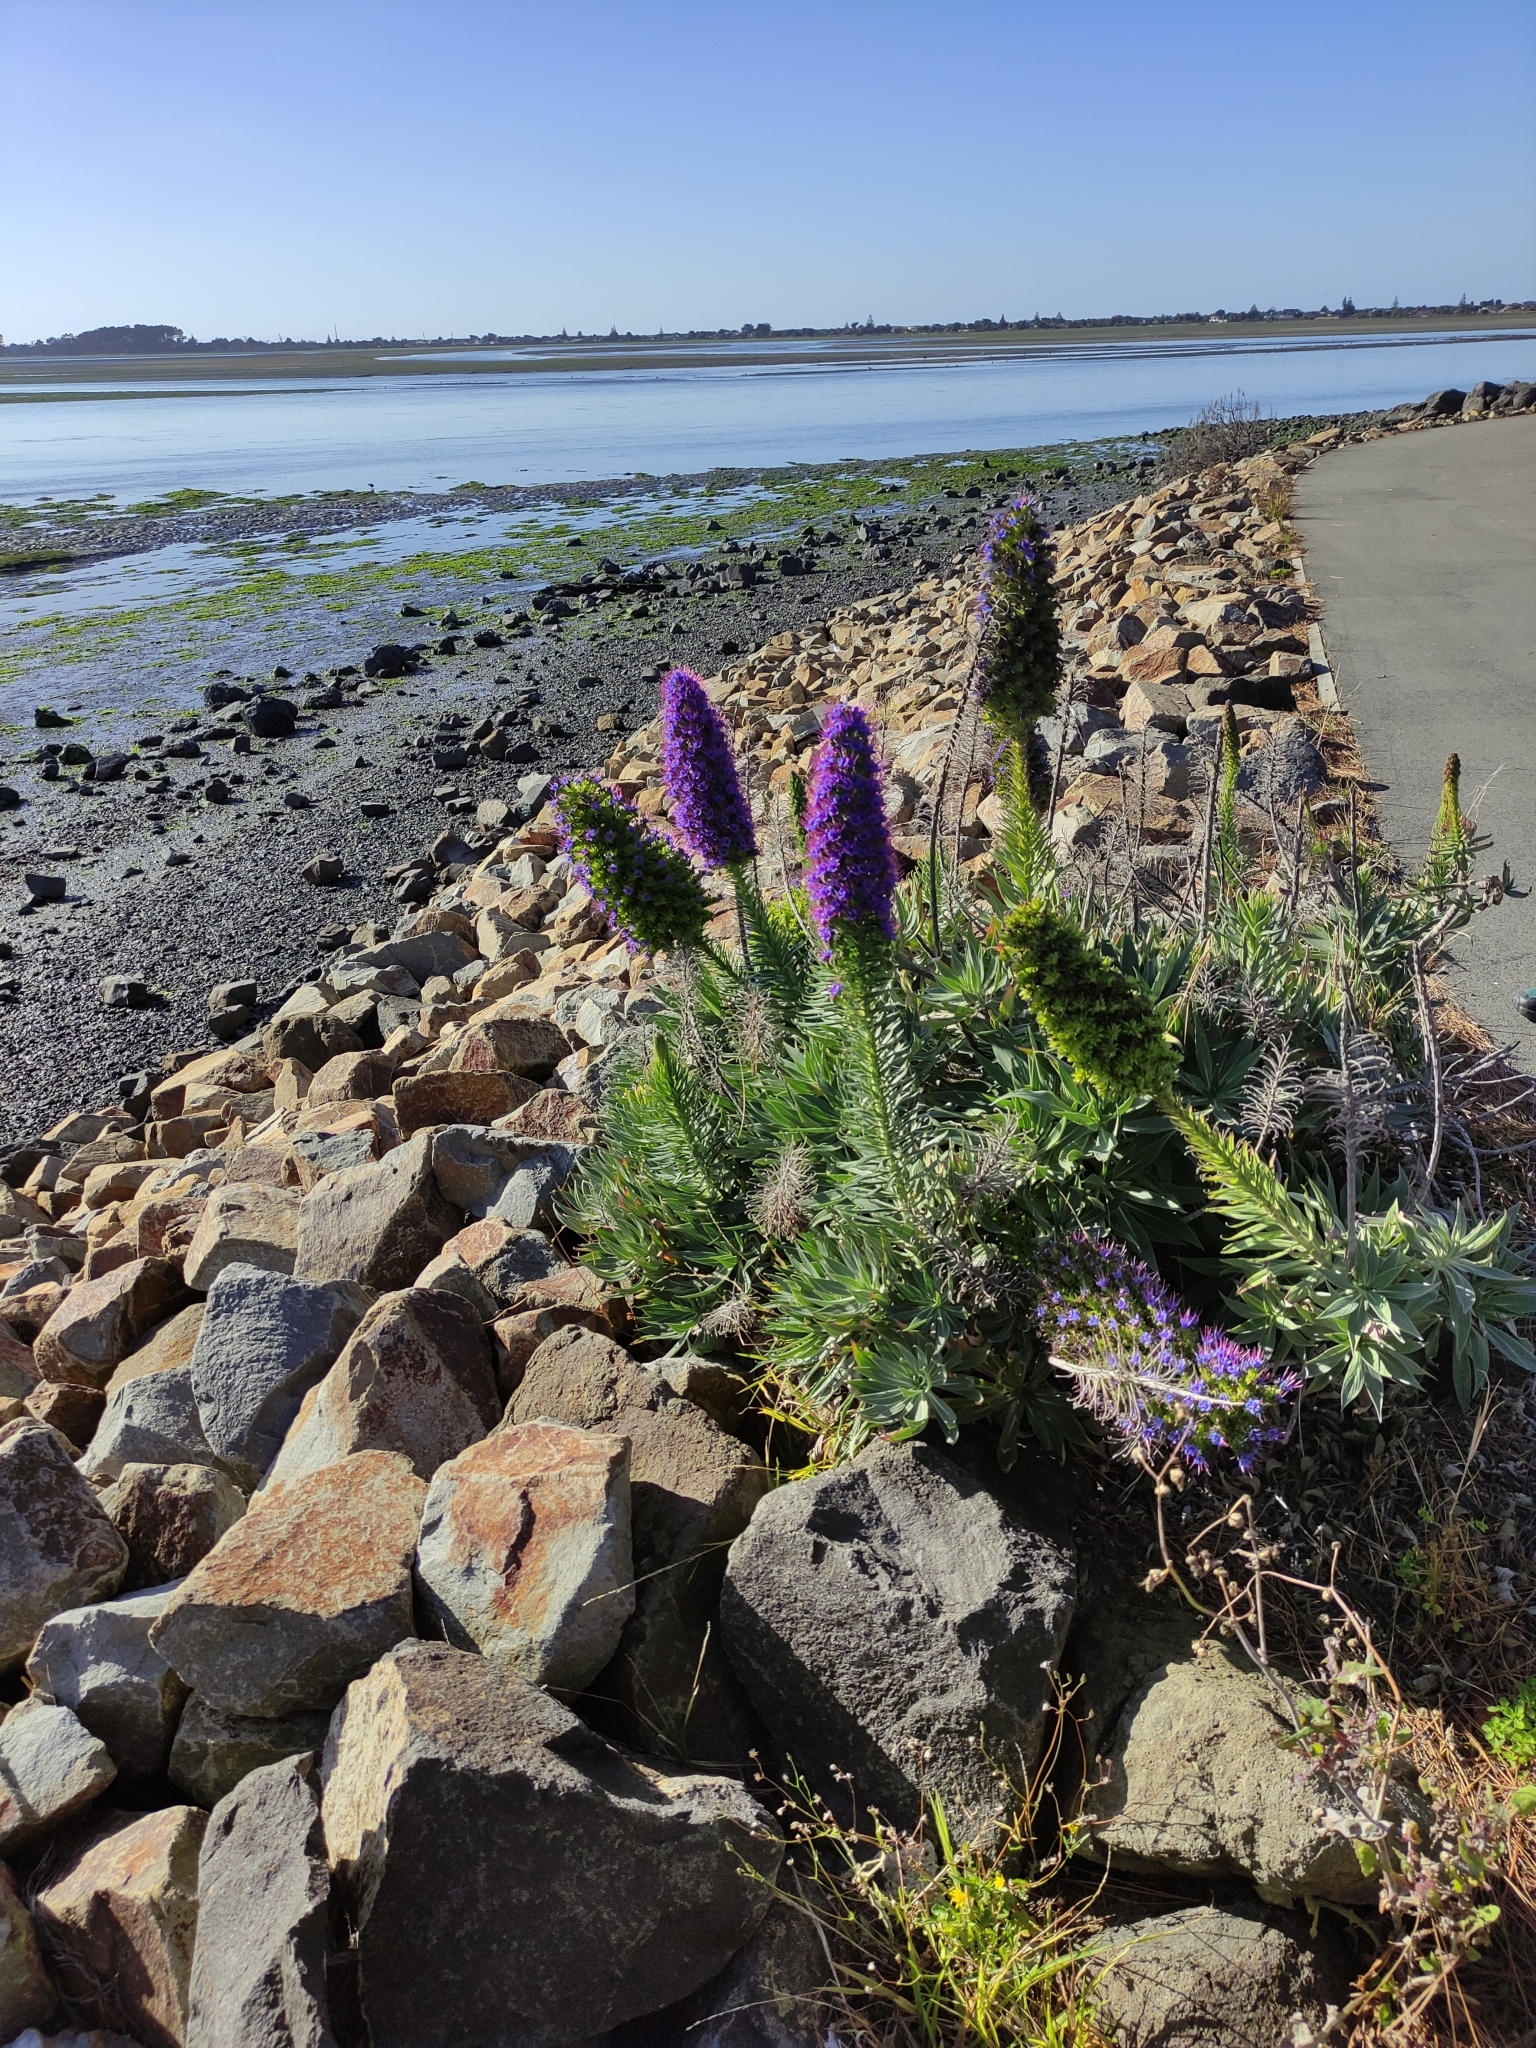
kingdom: Plantae
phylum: Tracheophyta
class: Magnoliopsida
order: Boraginales
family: Boraginaceae
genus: Echium
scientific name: Echium candicans
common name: Pride of madeira
